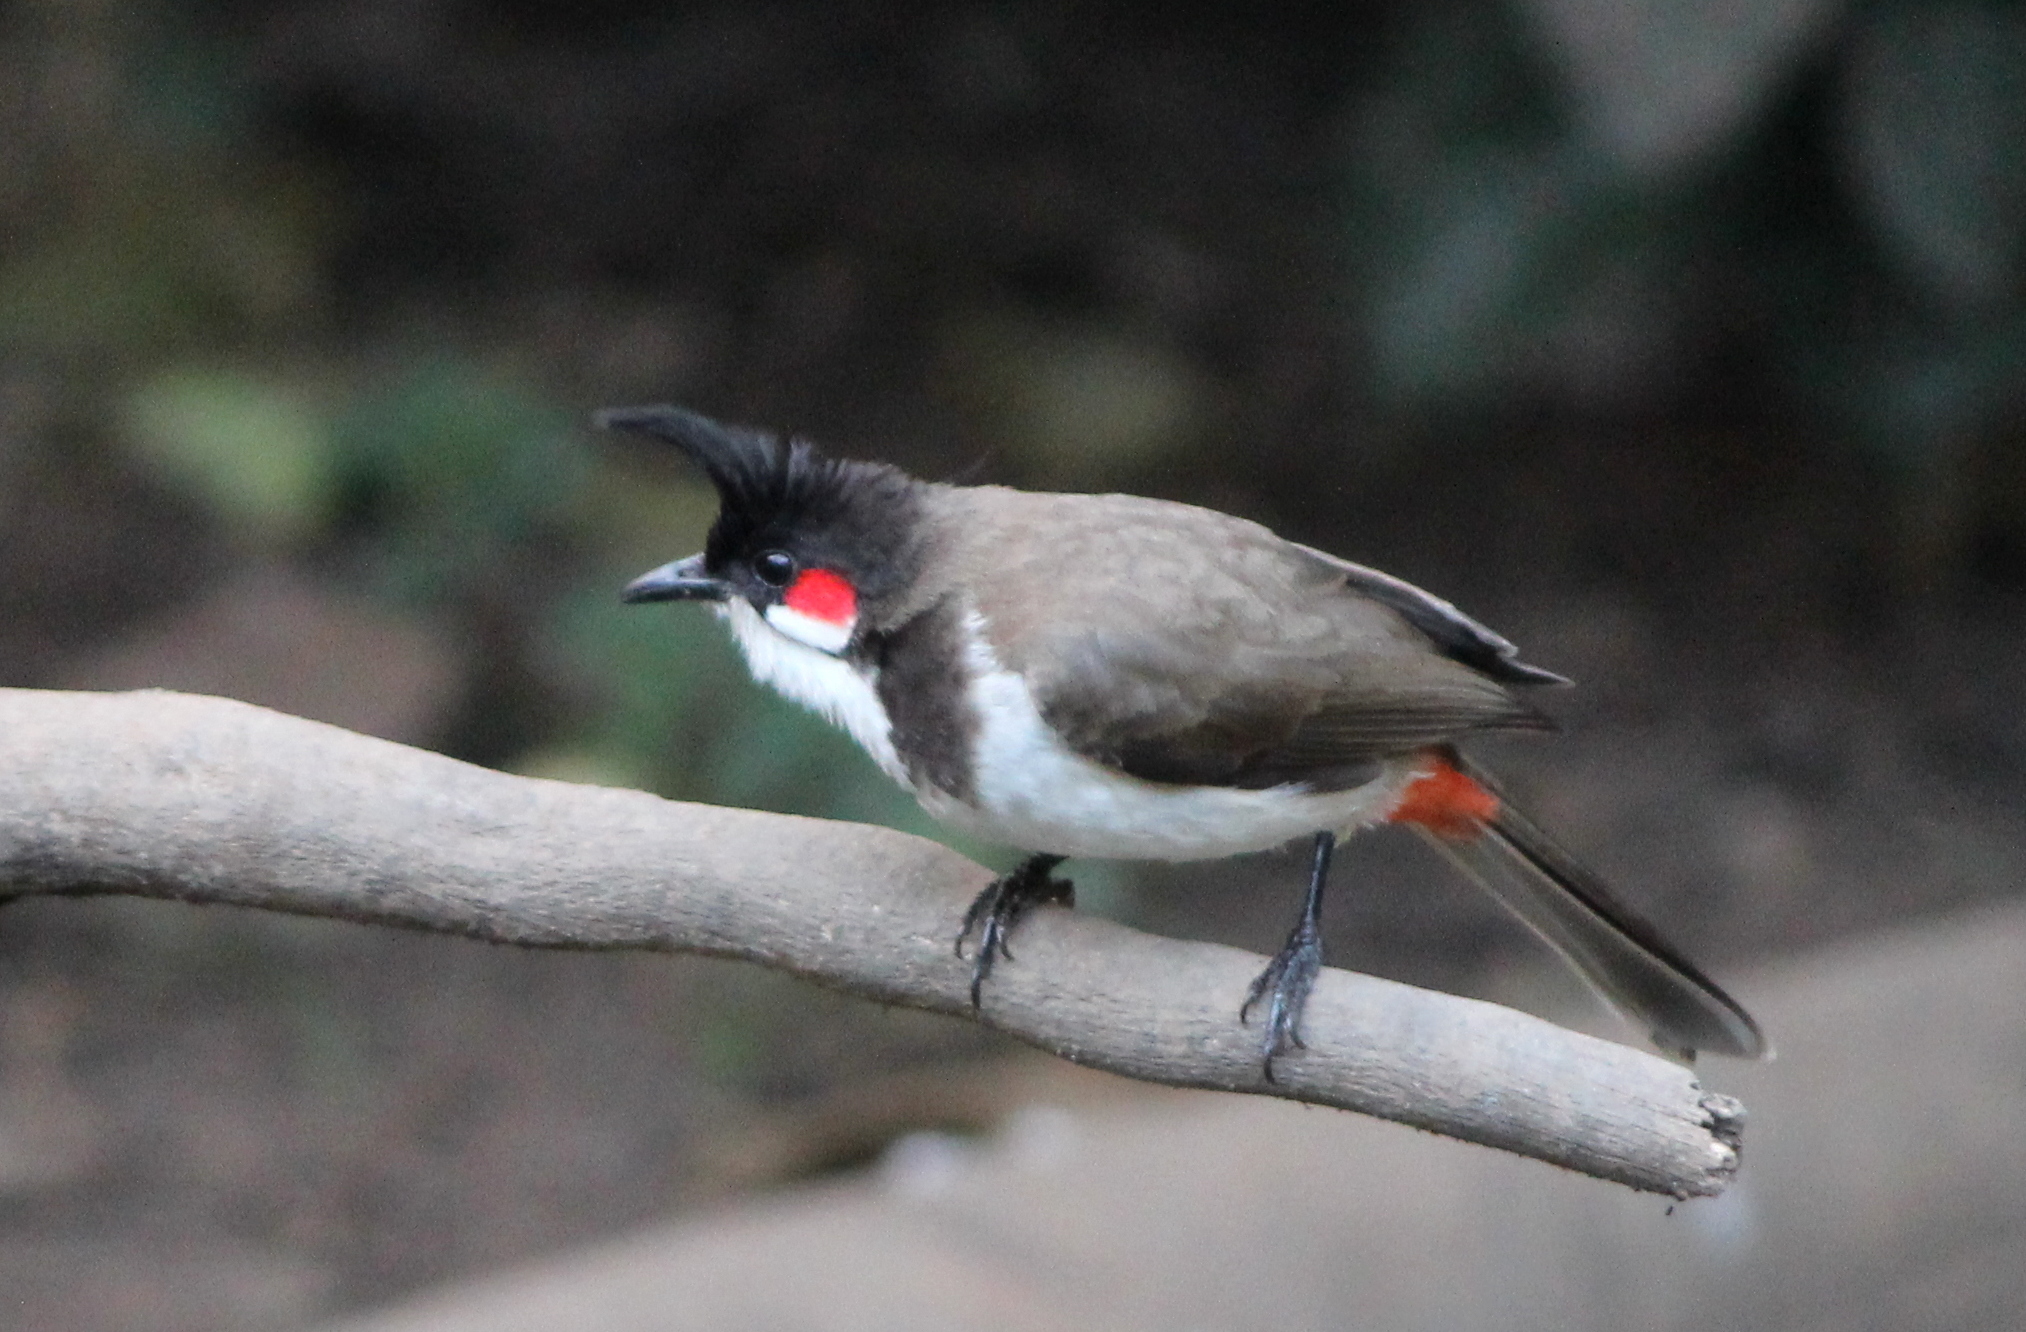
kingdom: Animalia
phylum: Chordata
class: Aves
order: Passeriformes
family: Pycnonotidae
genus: Pycnonotus
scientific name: Pycnonotus jocosus
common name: Red-whiskered bulbul
